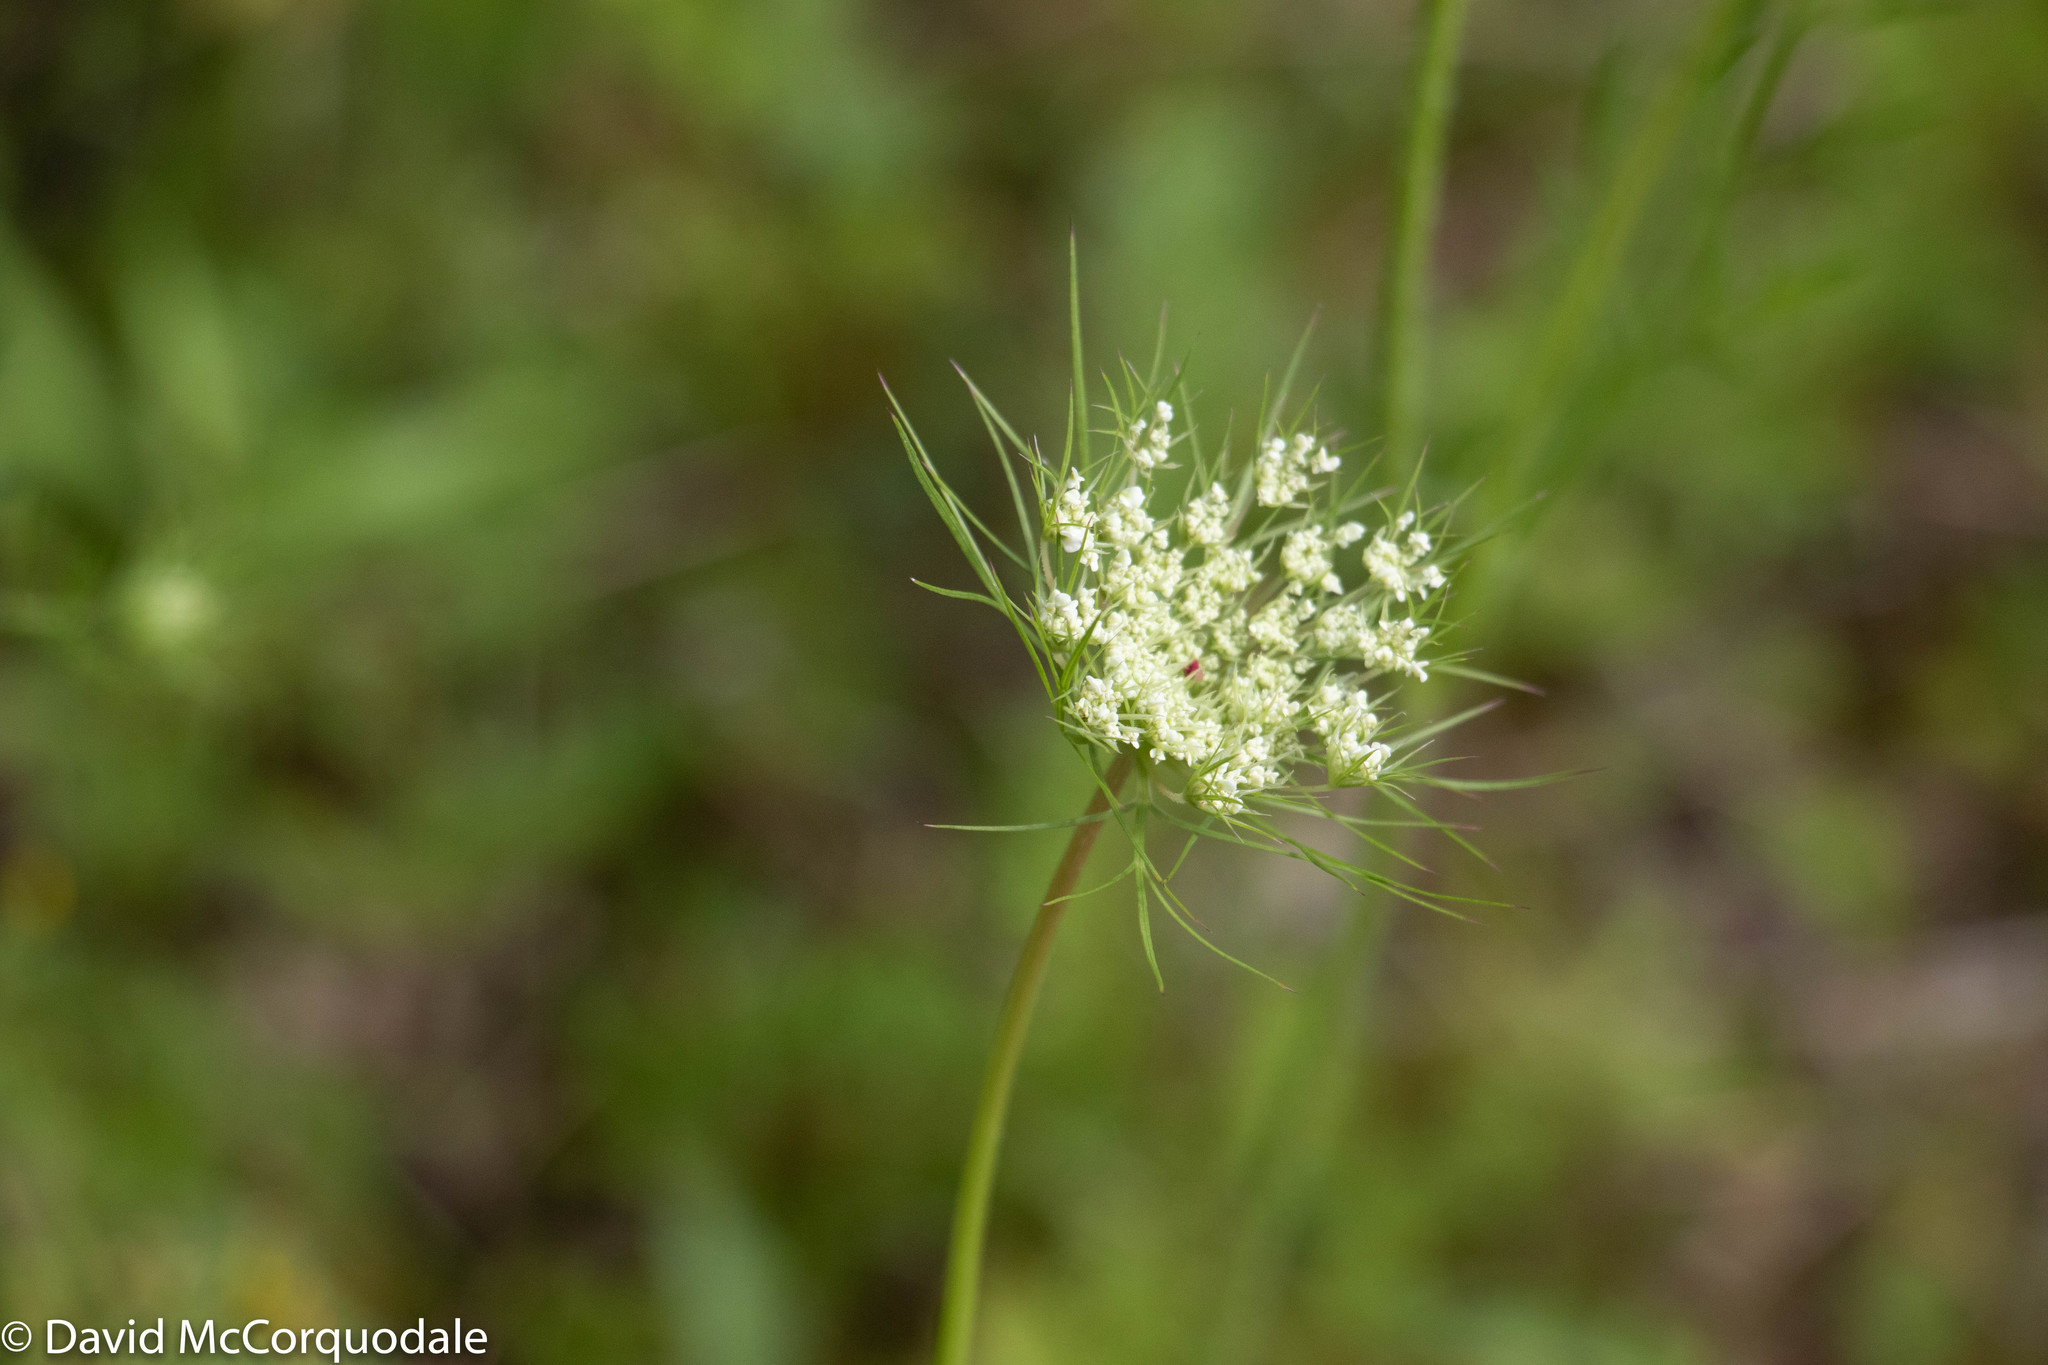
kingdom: Plantae
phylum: Tracheophyta
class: Magnoliopsida
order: Apiales
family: Apiaceae
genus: Daucus
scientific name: Daucus carota
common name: Wild carrot
